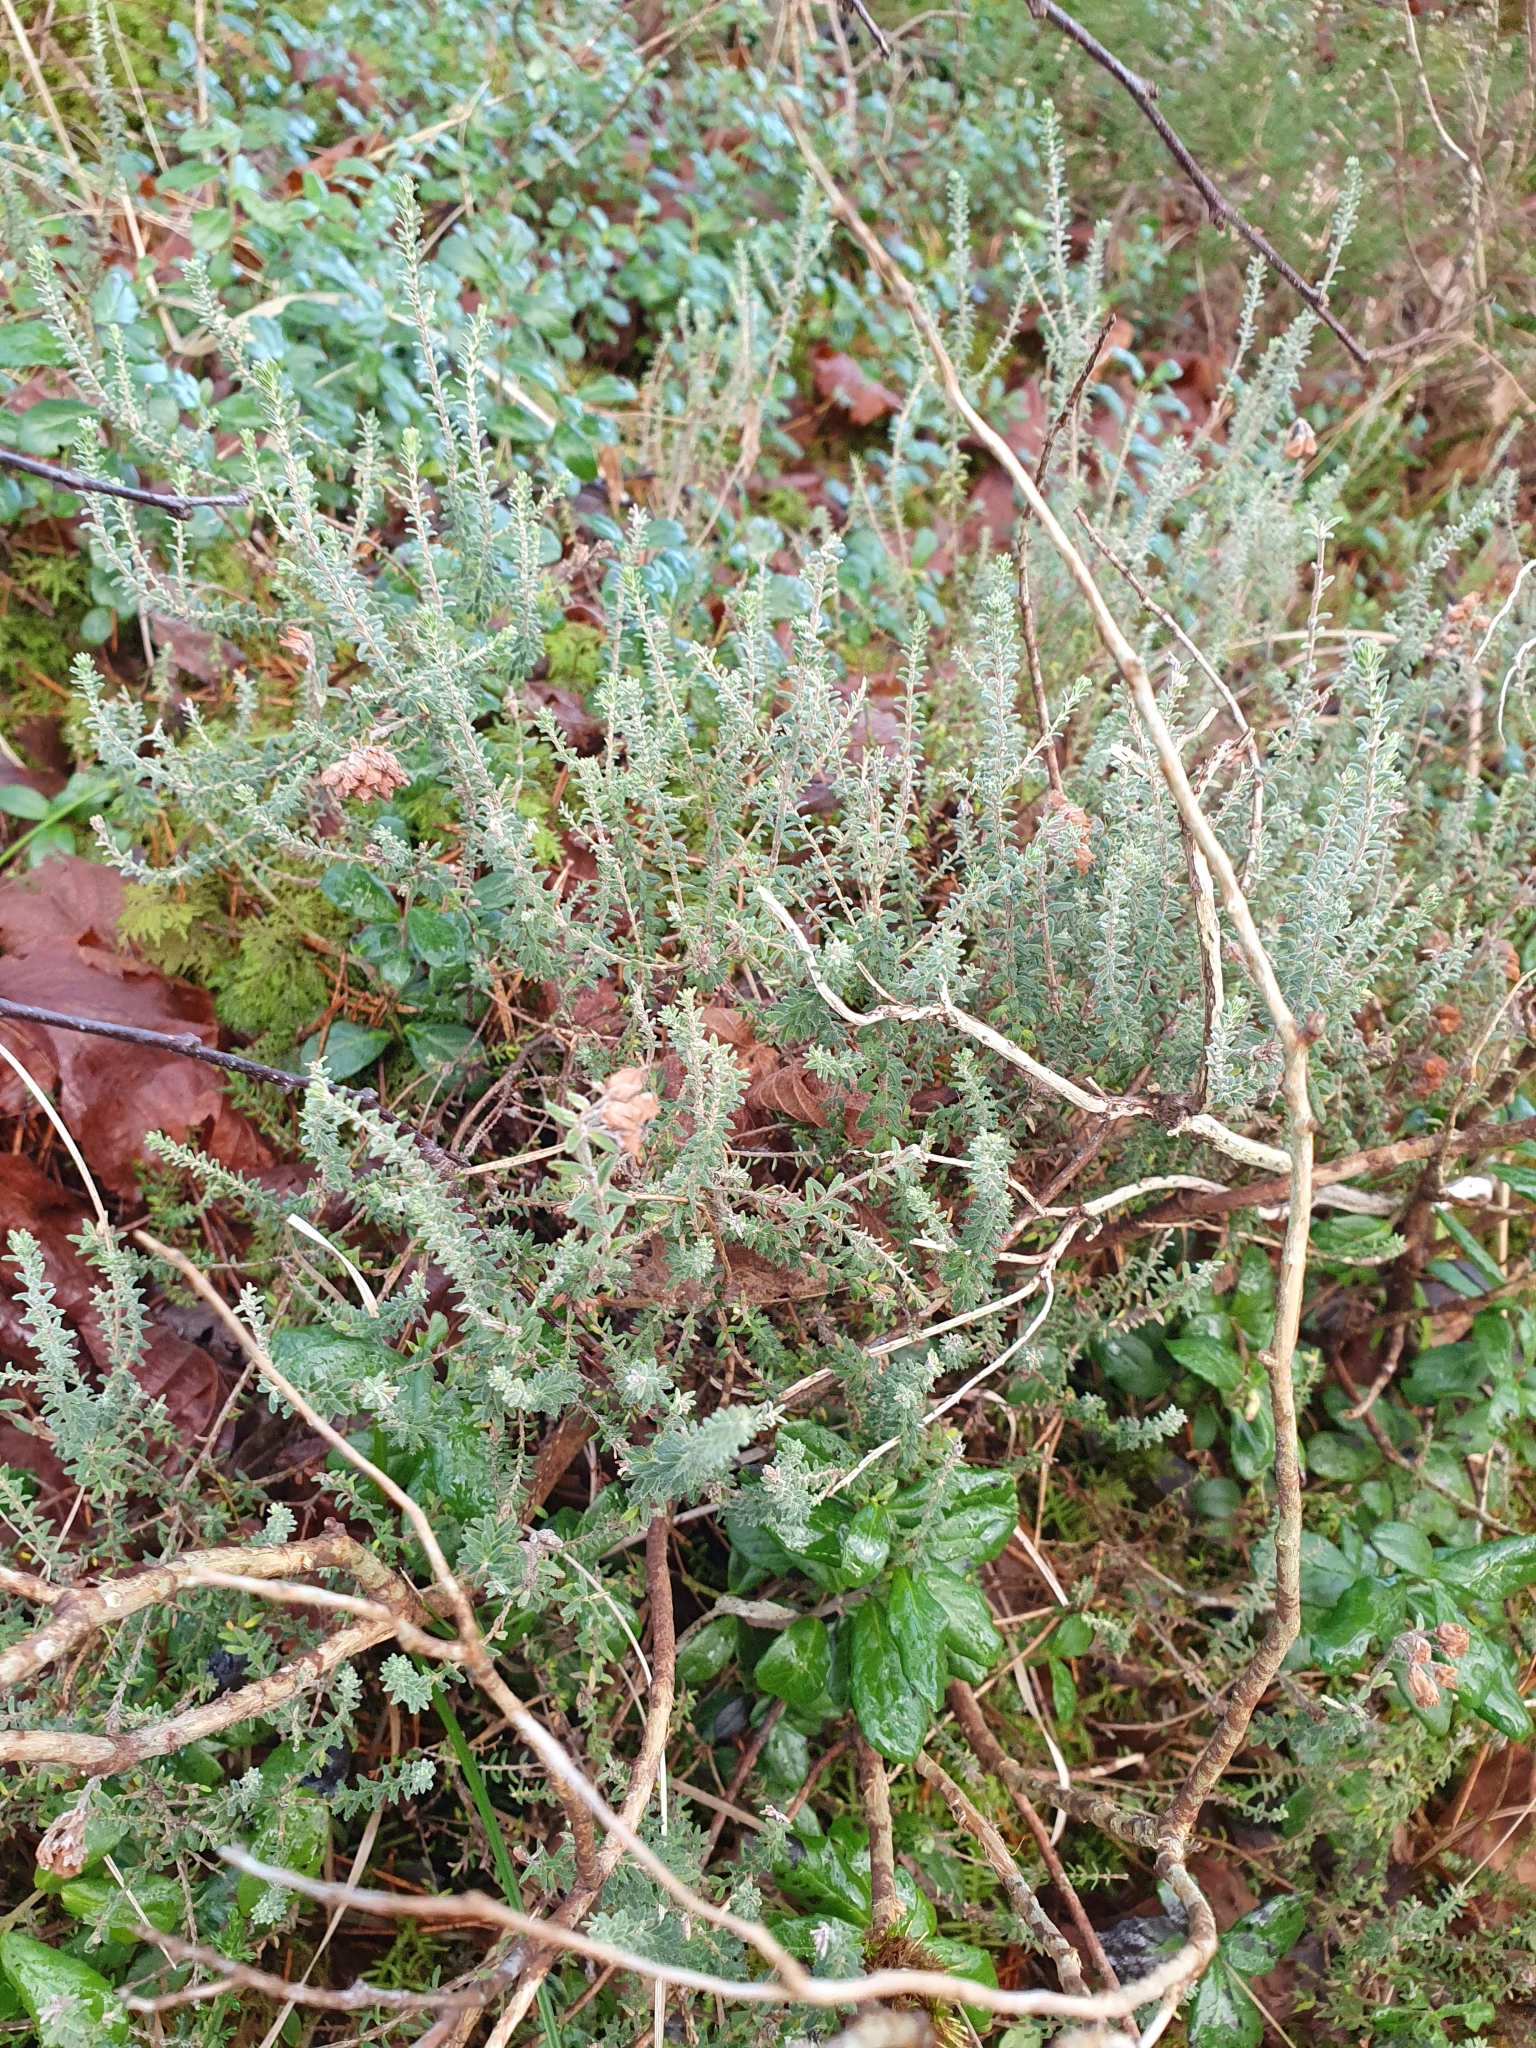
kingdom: Plantae
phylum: Tracheophyta
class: Magnoliopsida
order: Ericales
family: Ericaceae
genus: Erica
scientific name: Erica tetralix
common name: Cross-leaved heath
